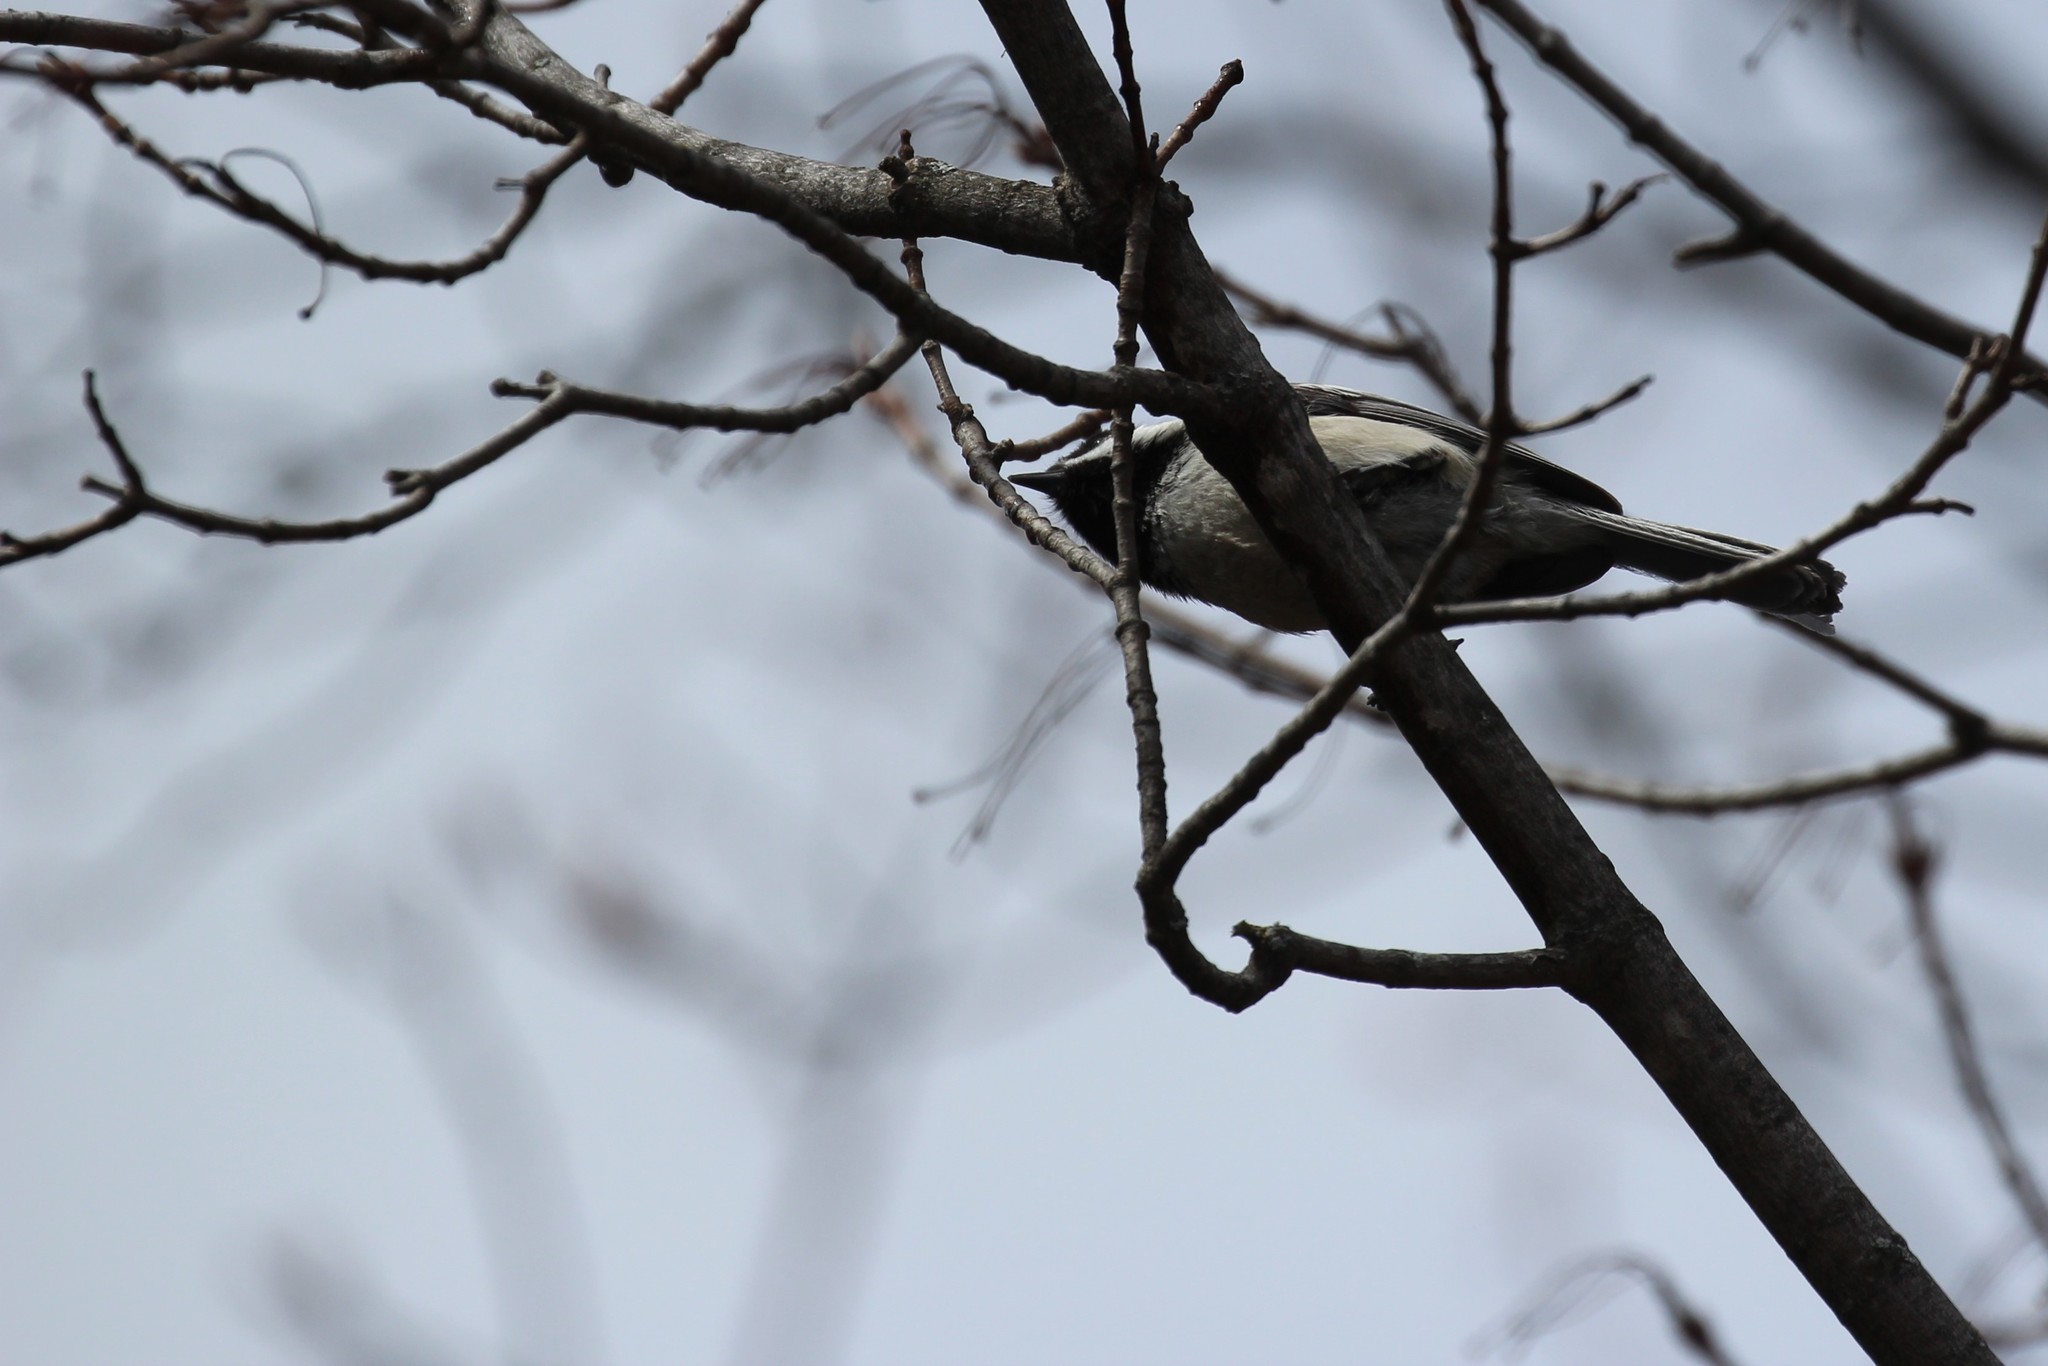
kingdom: Animalia
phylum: Chordata
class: Aves
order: Passeriformes
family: Paridae
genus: Poecile
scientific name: Poecile atricapillus
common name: Black-capped chickadee
